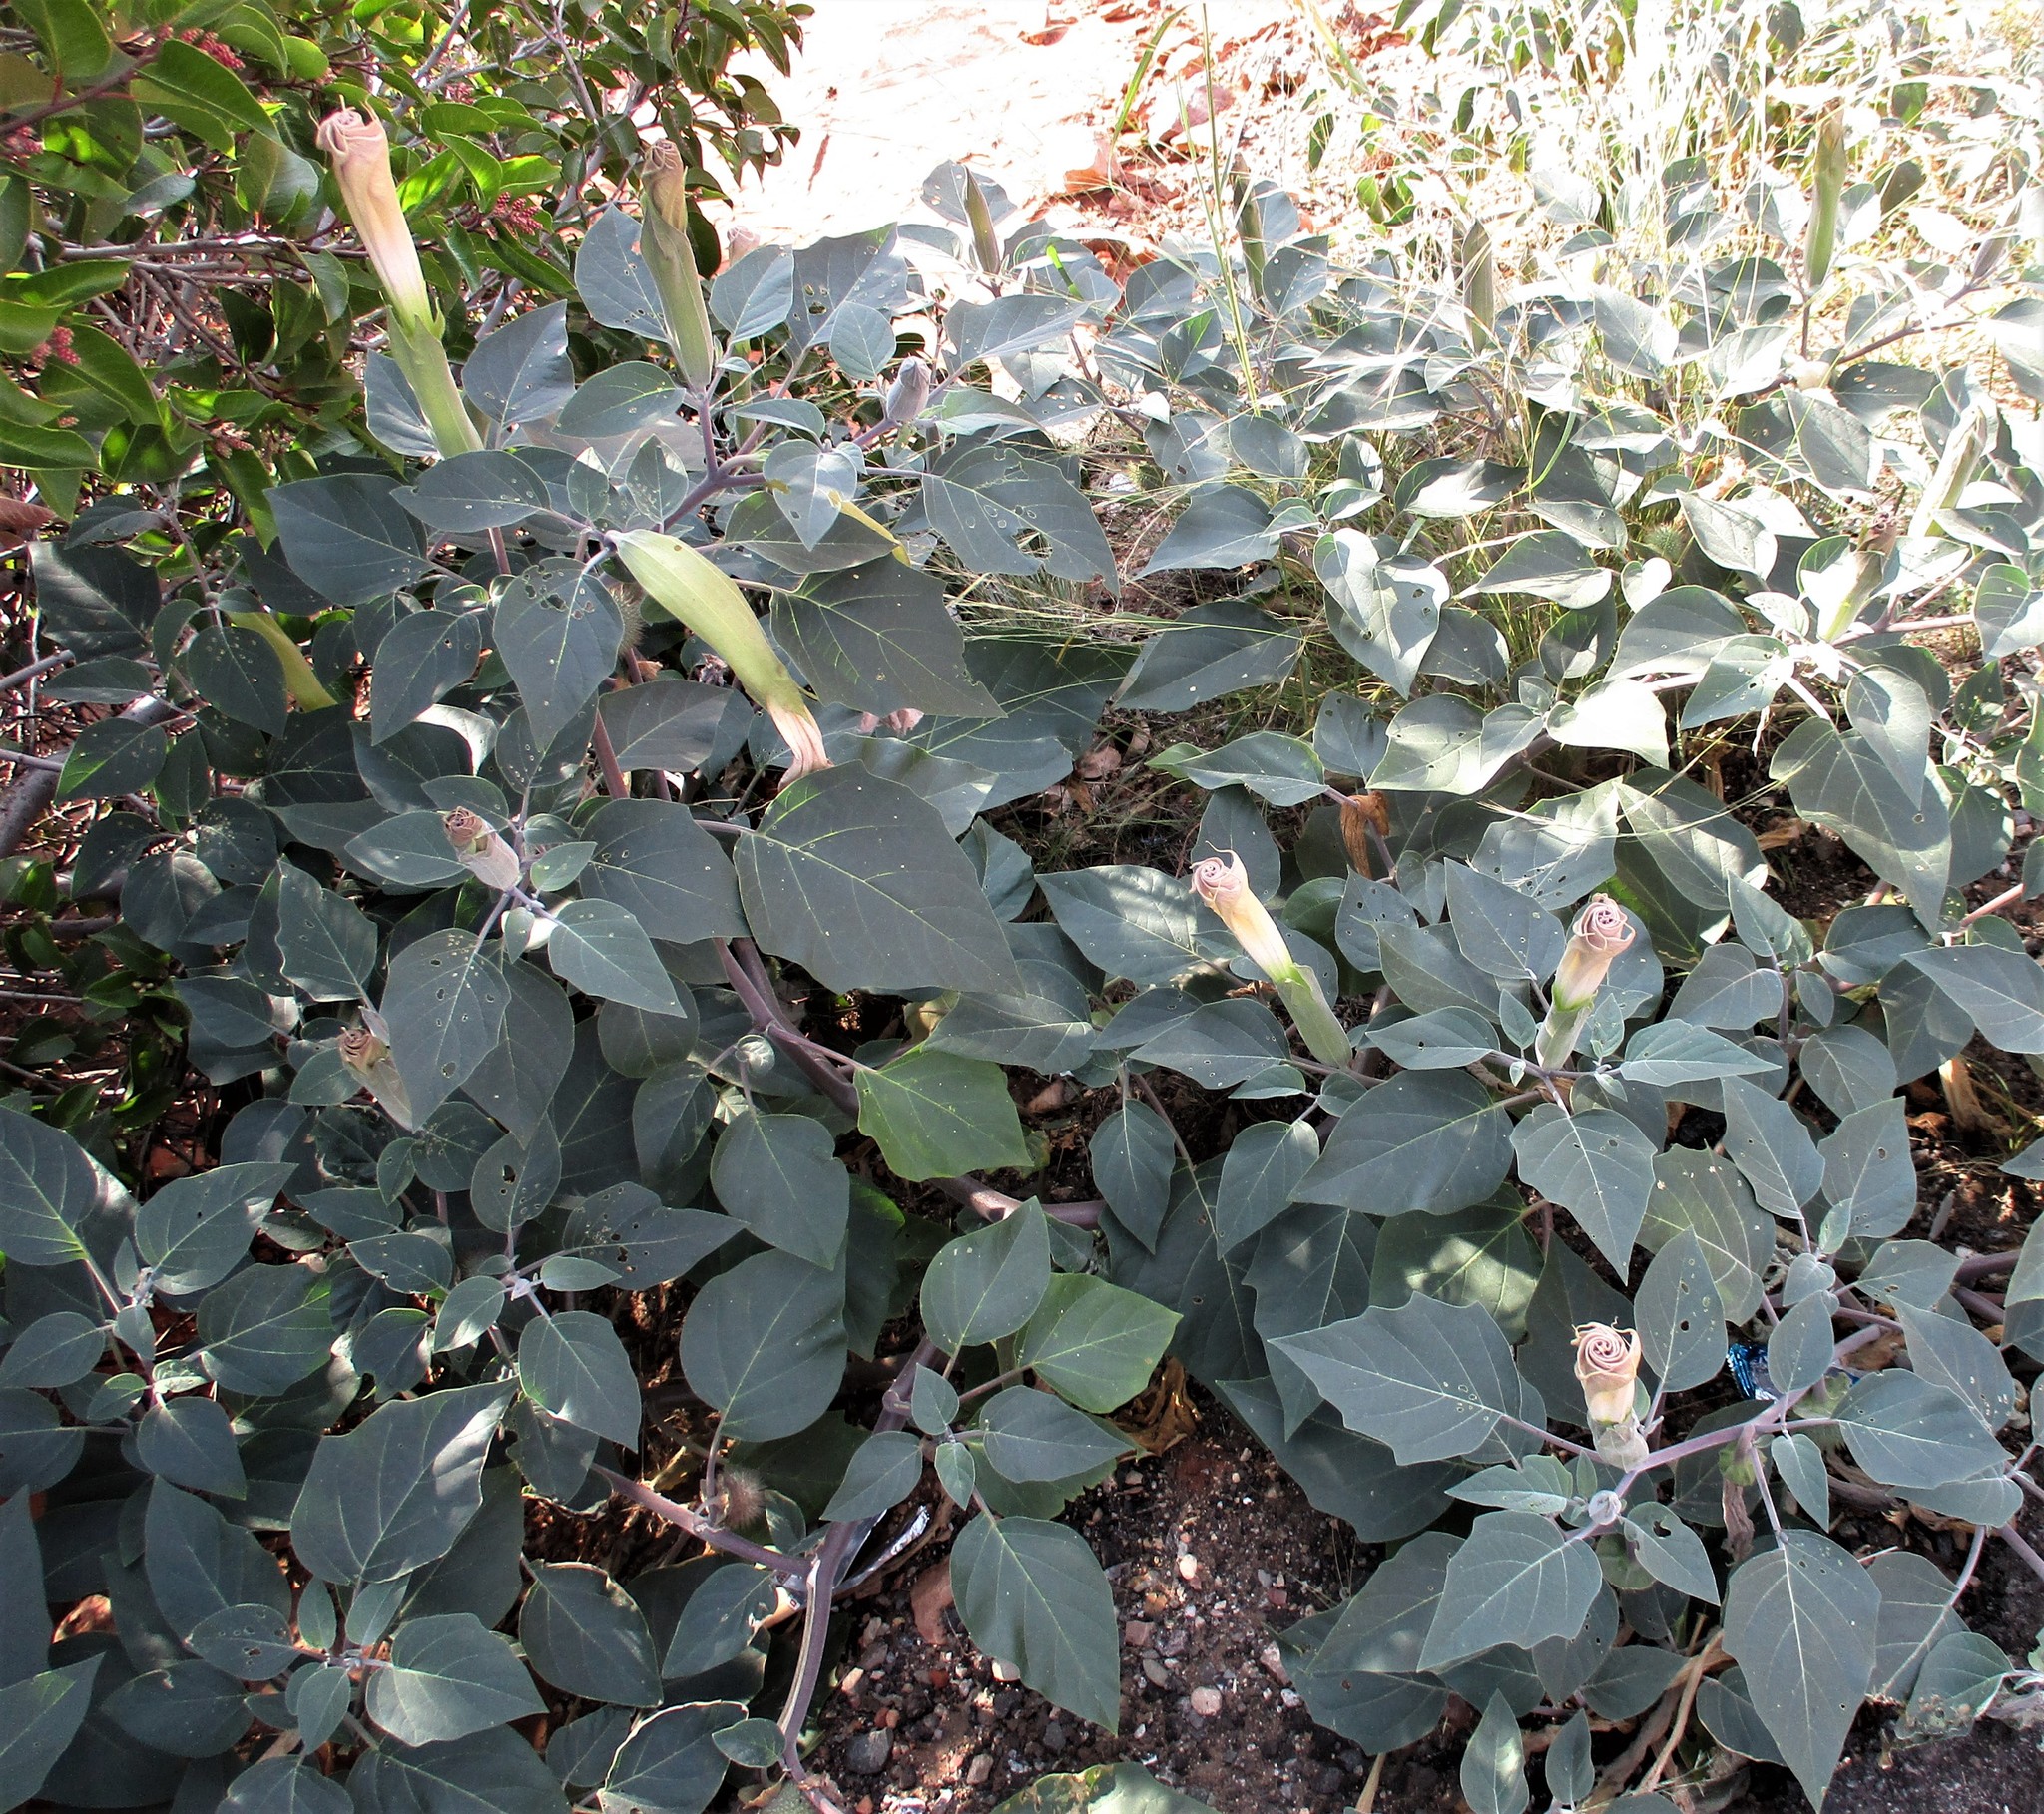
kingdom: Plantae
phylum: Tracheophyta
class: Magnoliopsida
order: Solanales
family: Solanaceae
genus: Datura
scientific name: Datura wrightii
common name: Sacred thorn-apple
